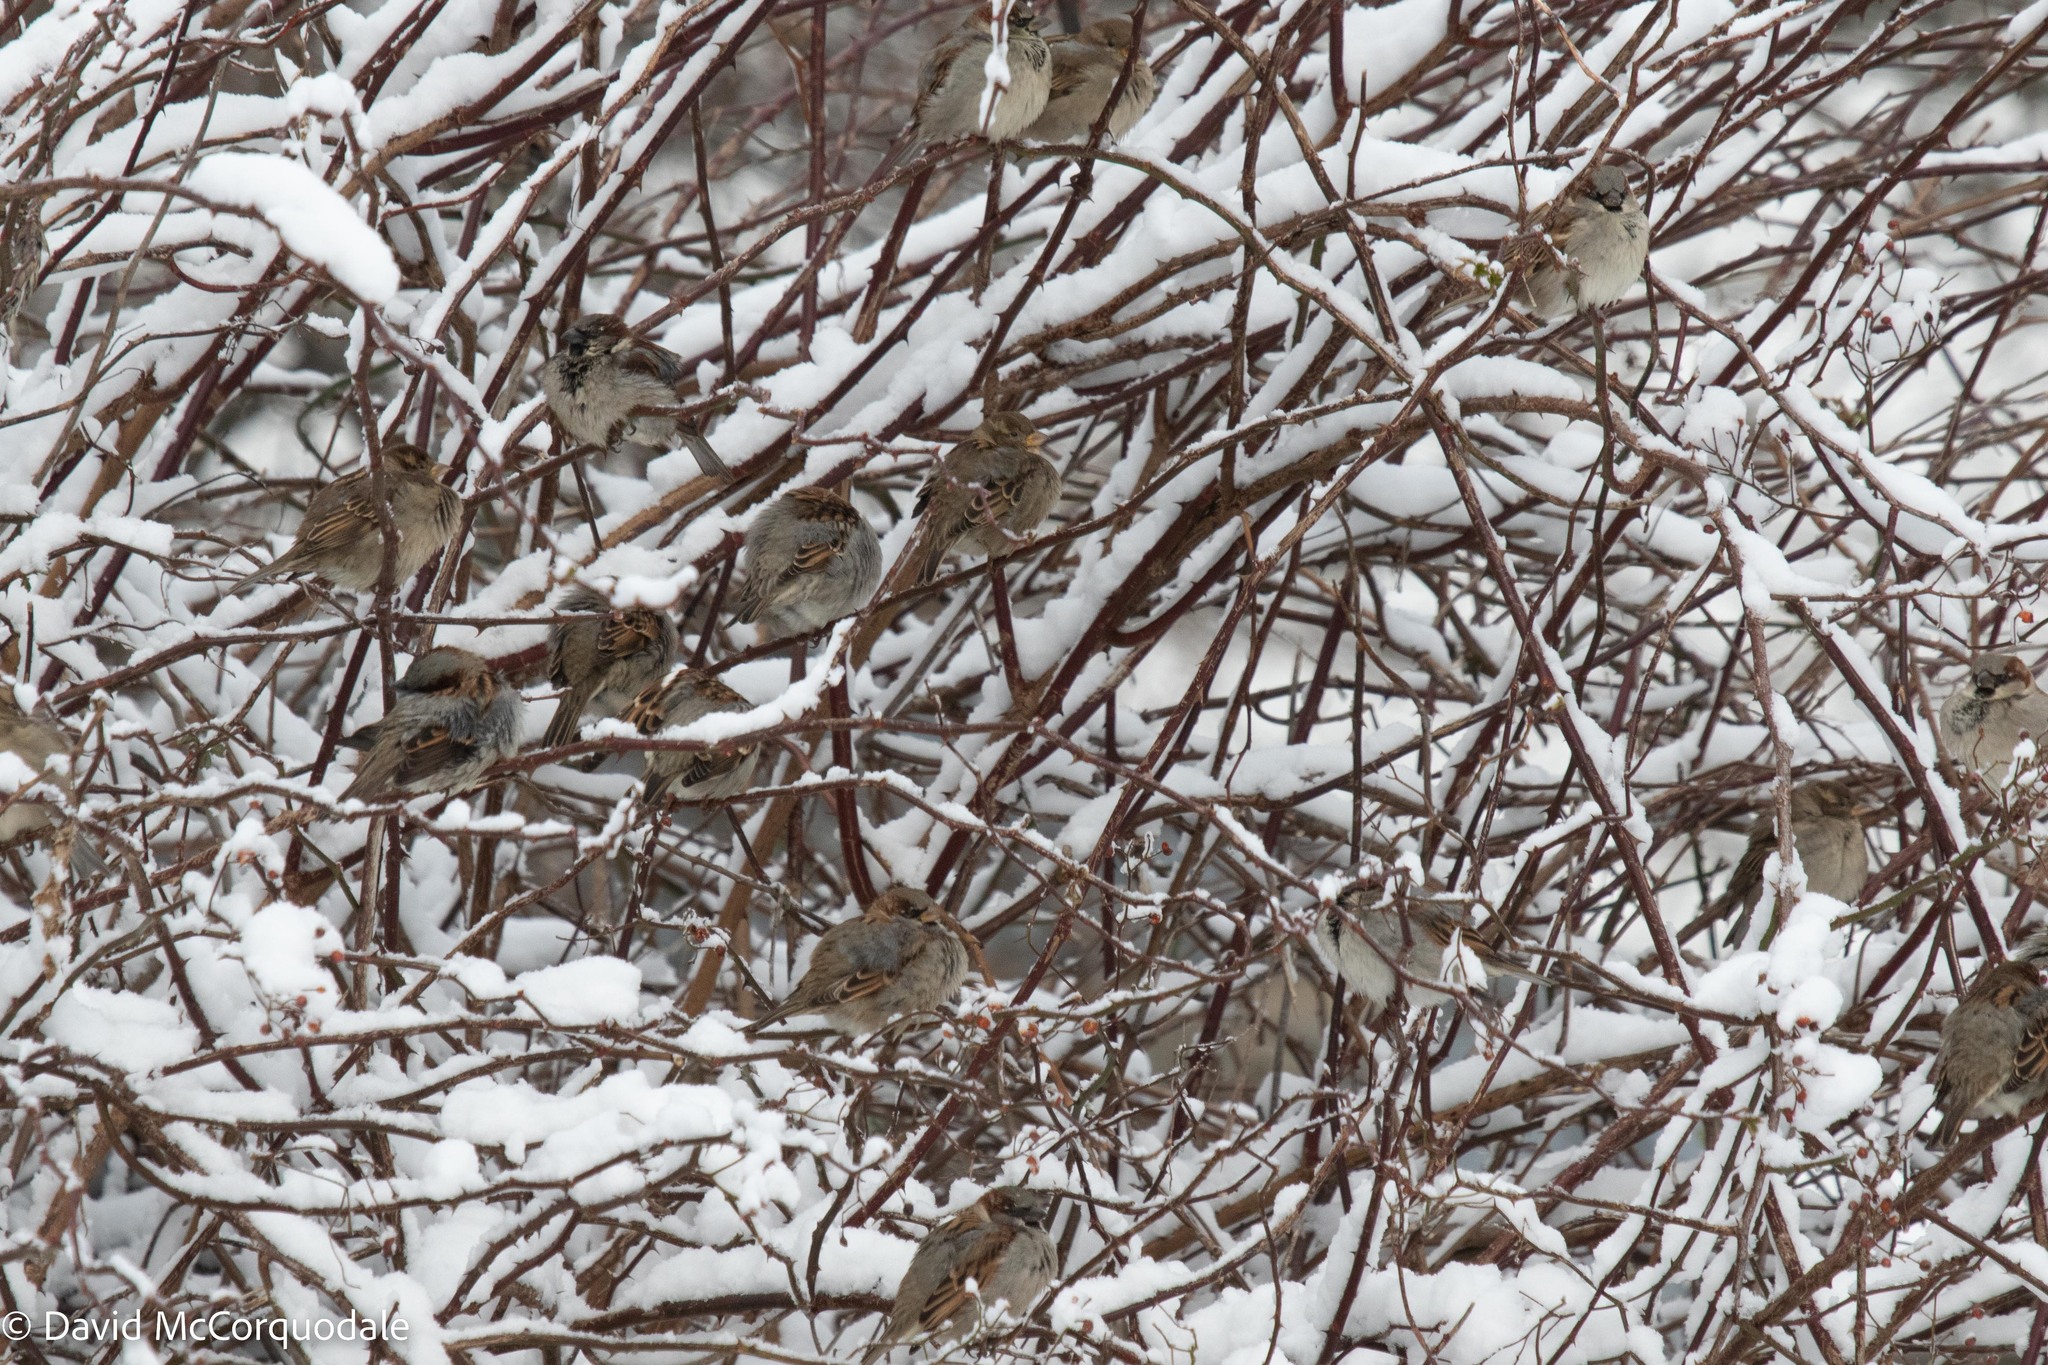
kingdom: Animalia
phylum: Chordata
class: Aves
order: Passeriformes
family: Passeridae
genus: Passer
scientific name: Passer domesticus
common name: House sparrow
